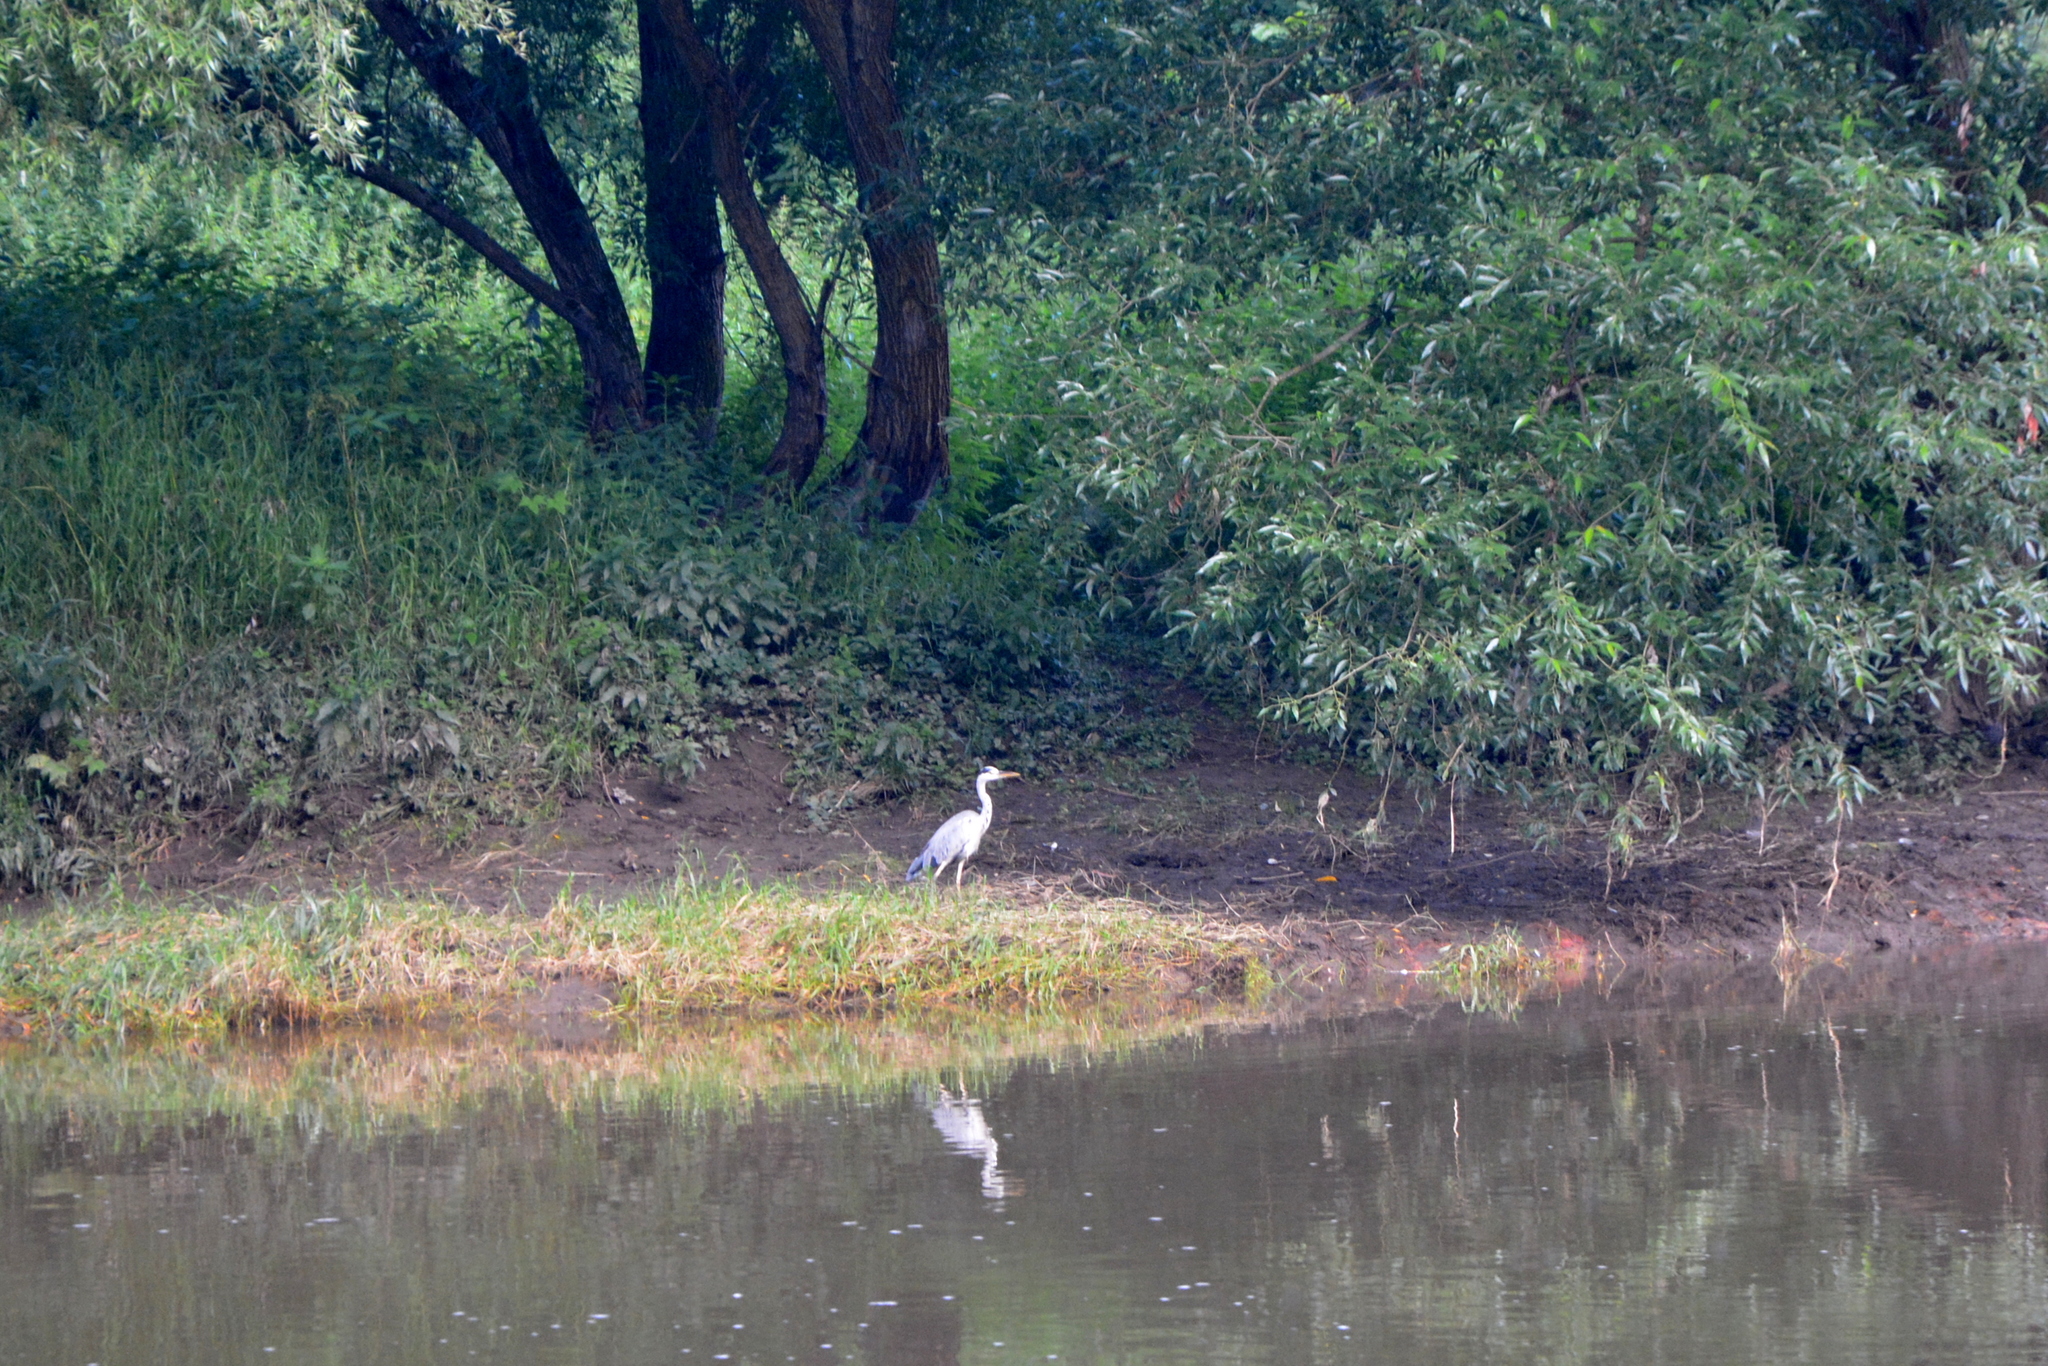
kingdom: Animalia
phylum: Chordata
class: Aves
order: Pelecaniformes
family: Ardeidae
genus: Ardea
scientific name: Ardea cinerea
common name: Grey heron
